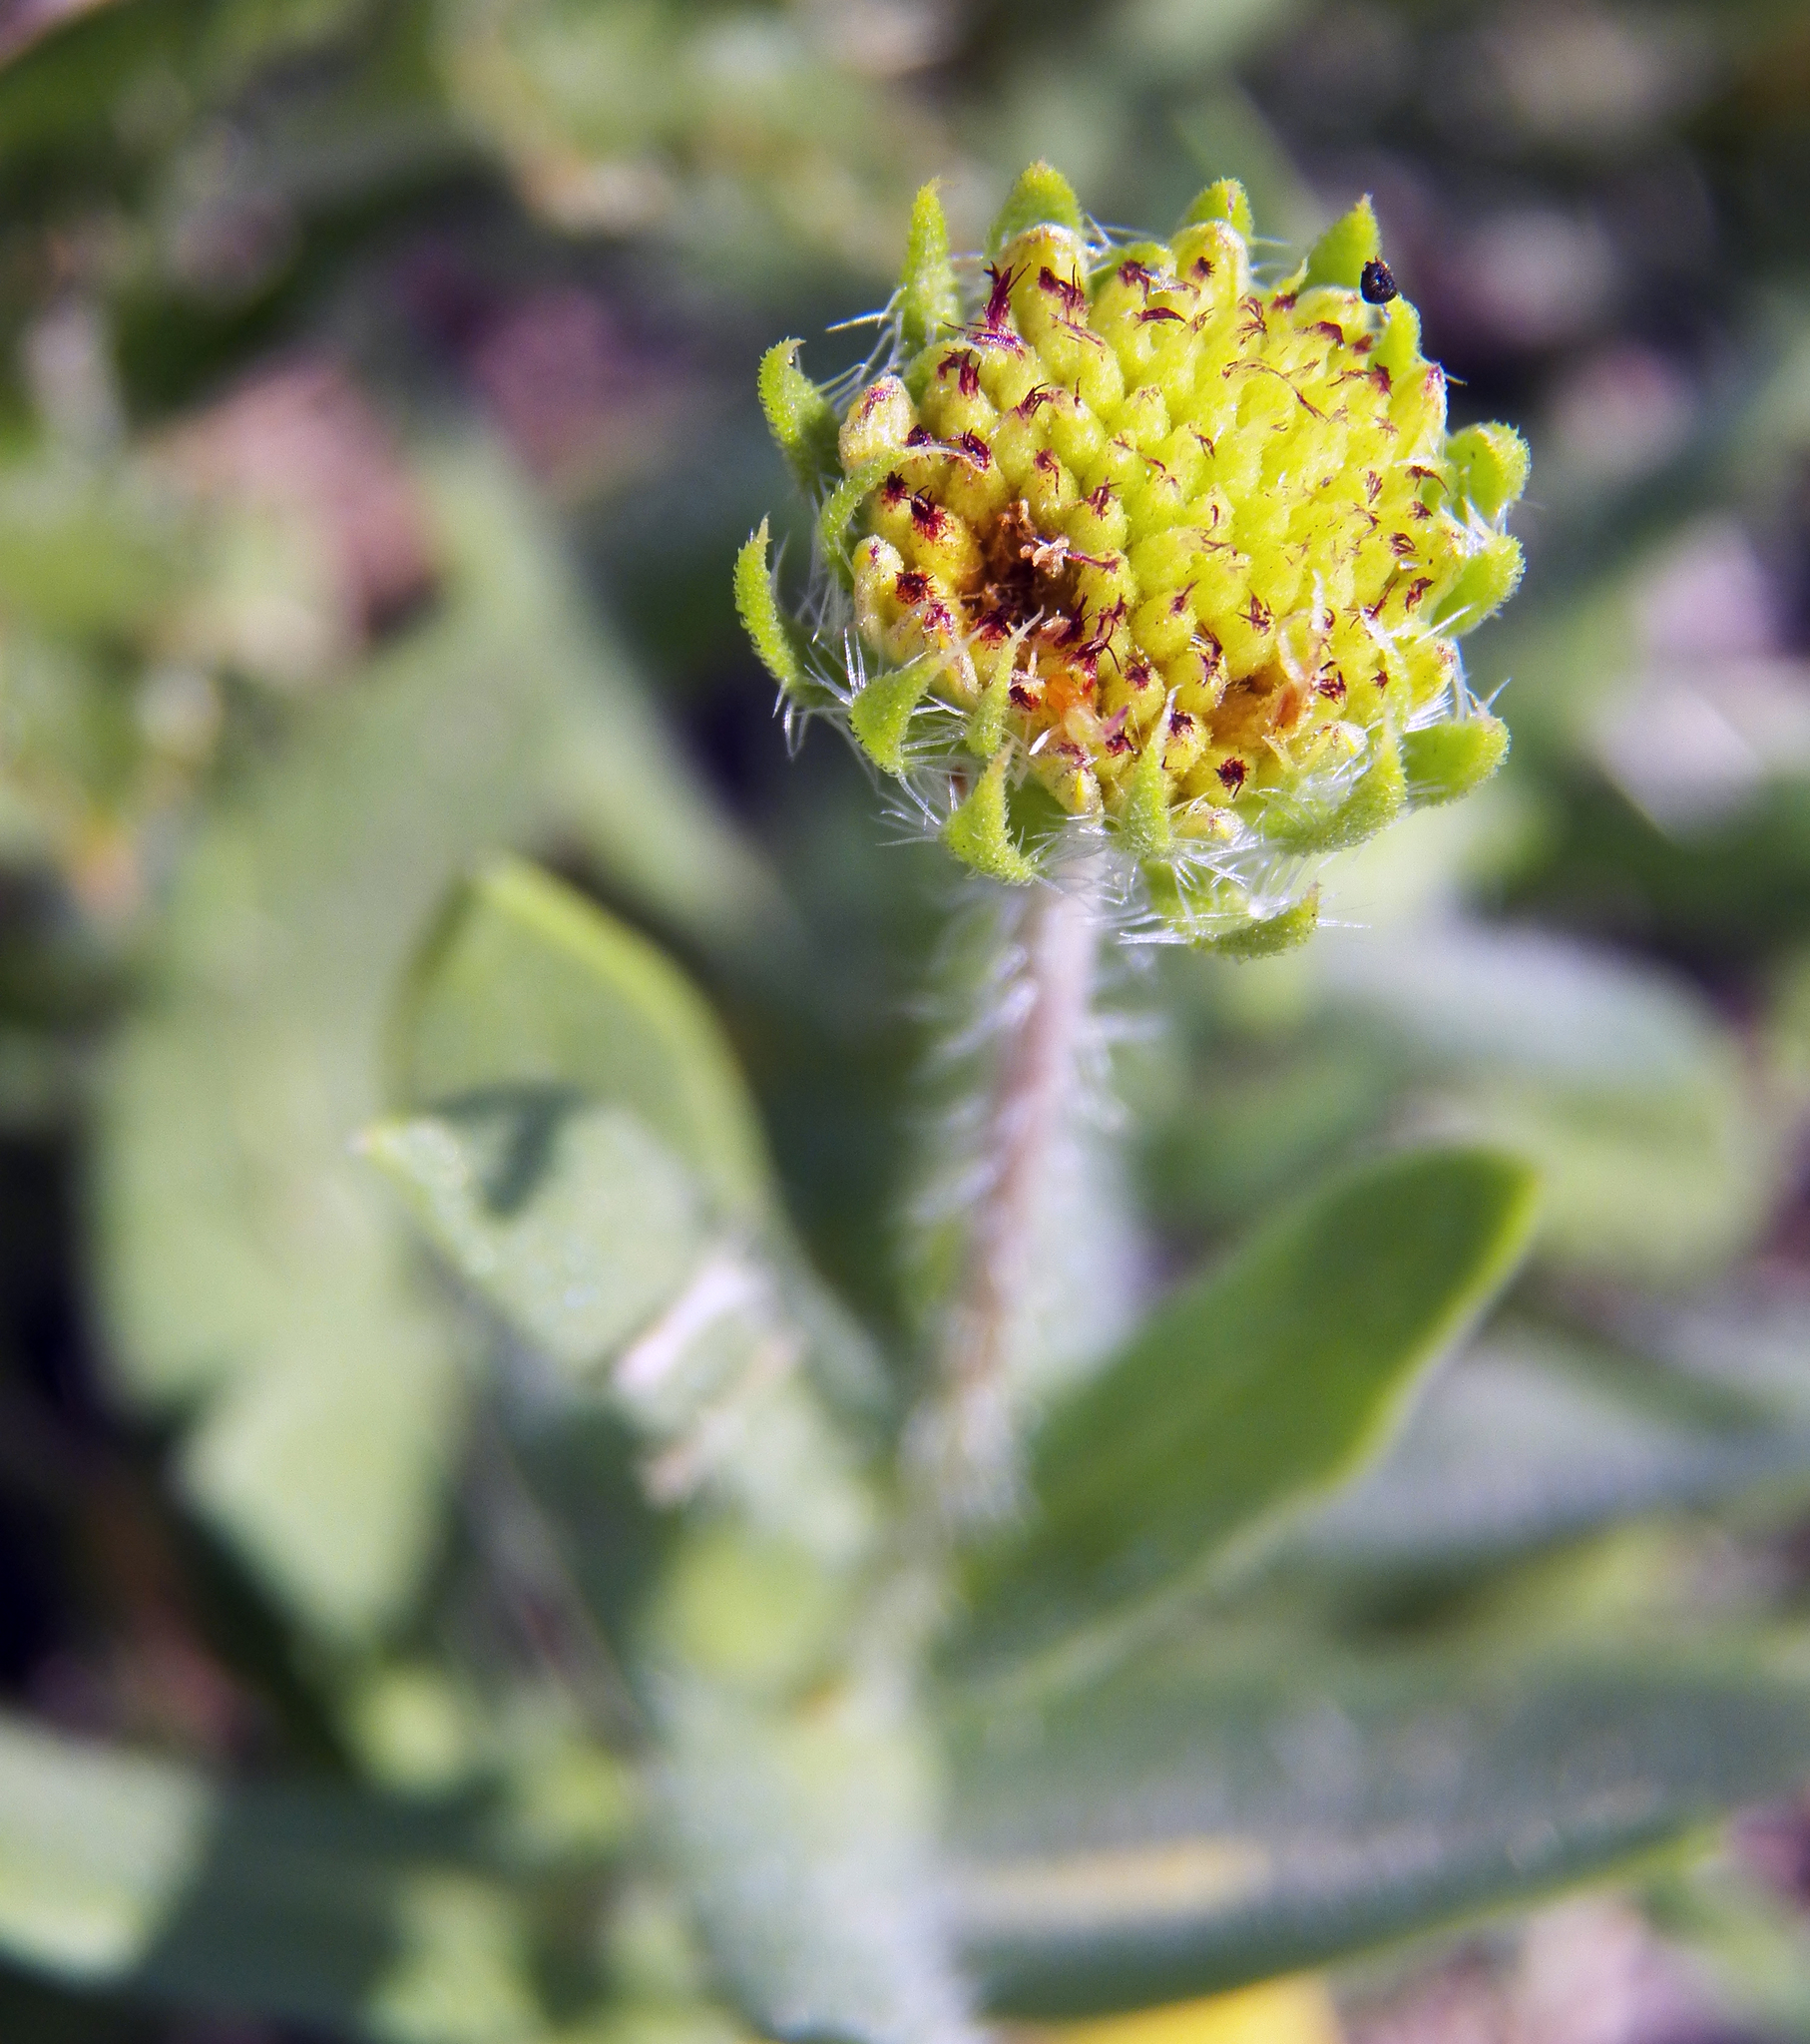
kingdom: Plantae
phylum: Tracheophyta
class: Magnoliopsida
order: Asterales
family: Asteraceae
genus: Gaillardia
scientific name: Gaillardia pulchella
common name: Firewheel
